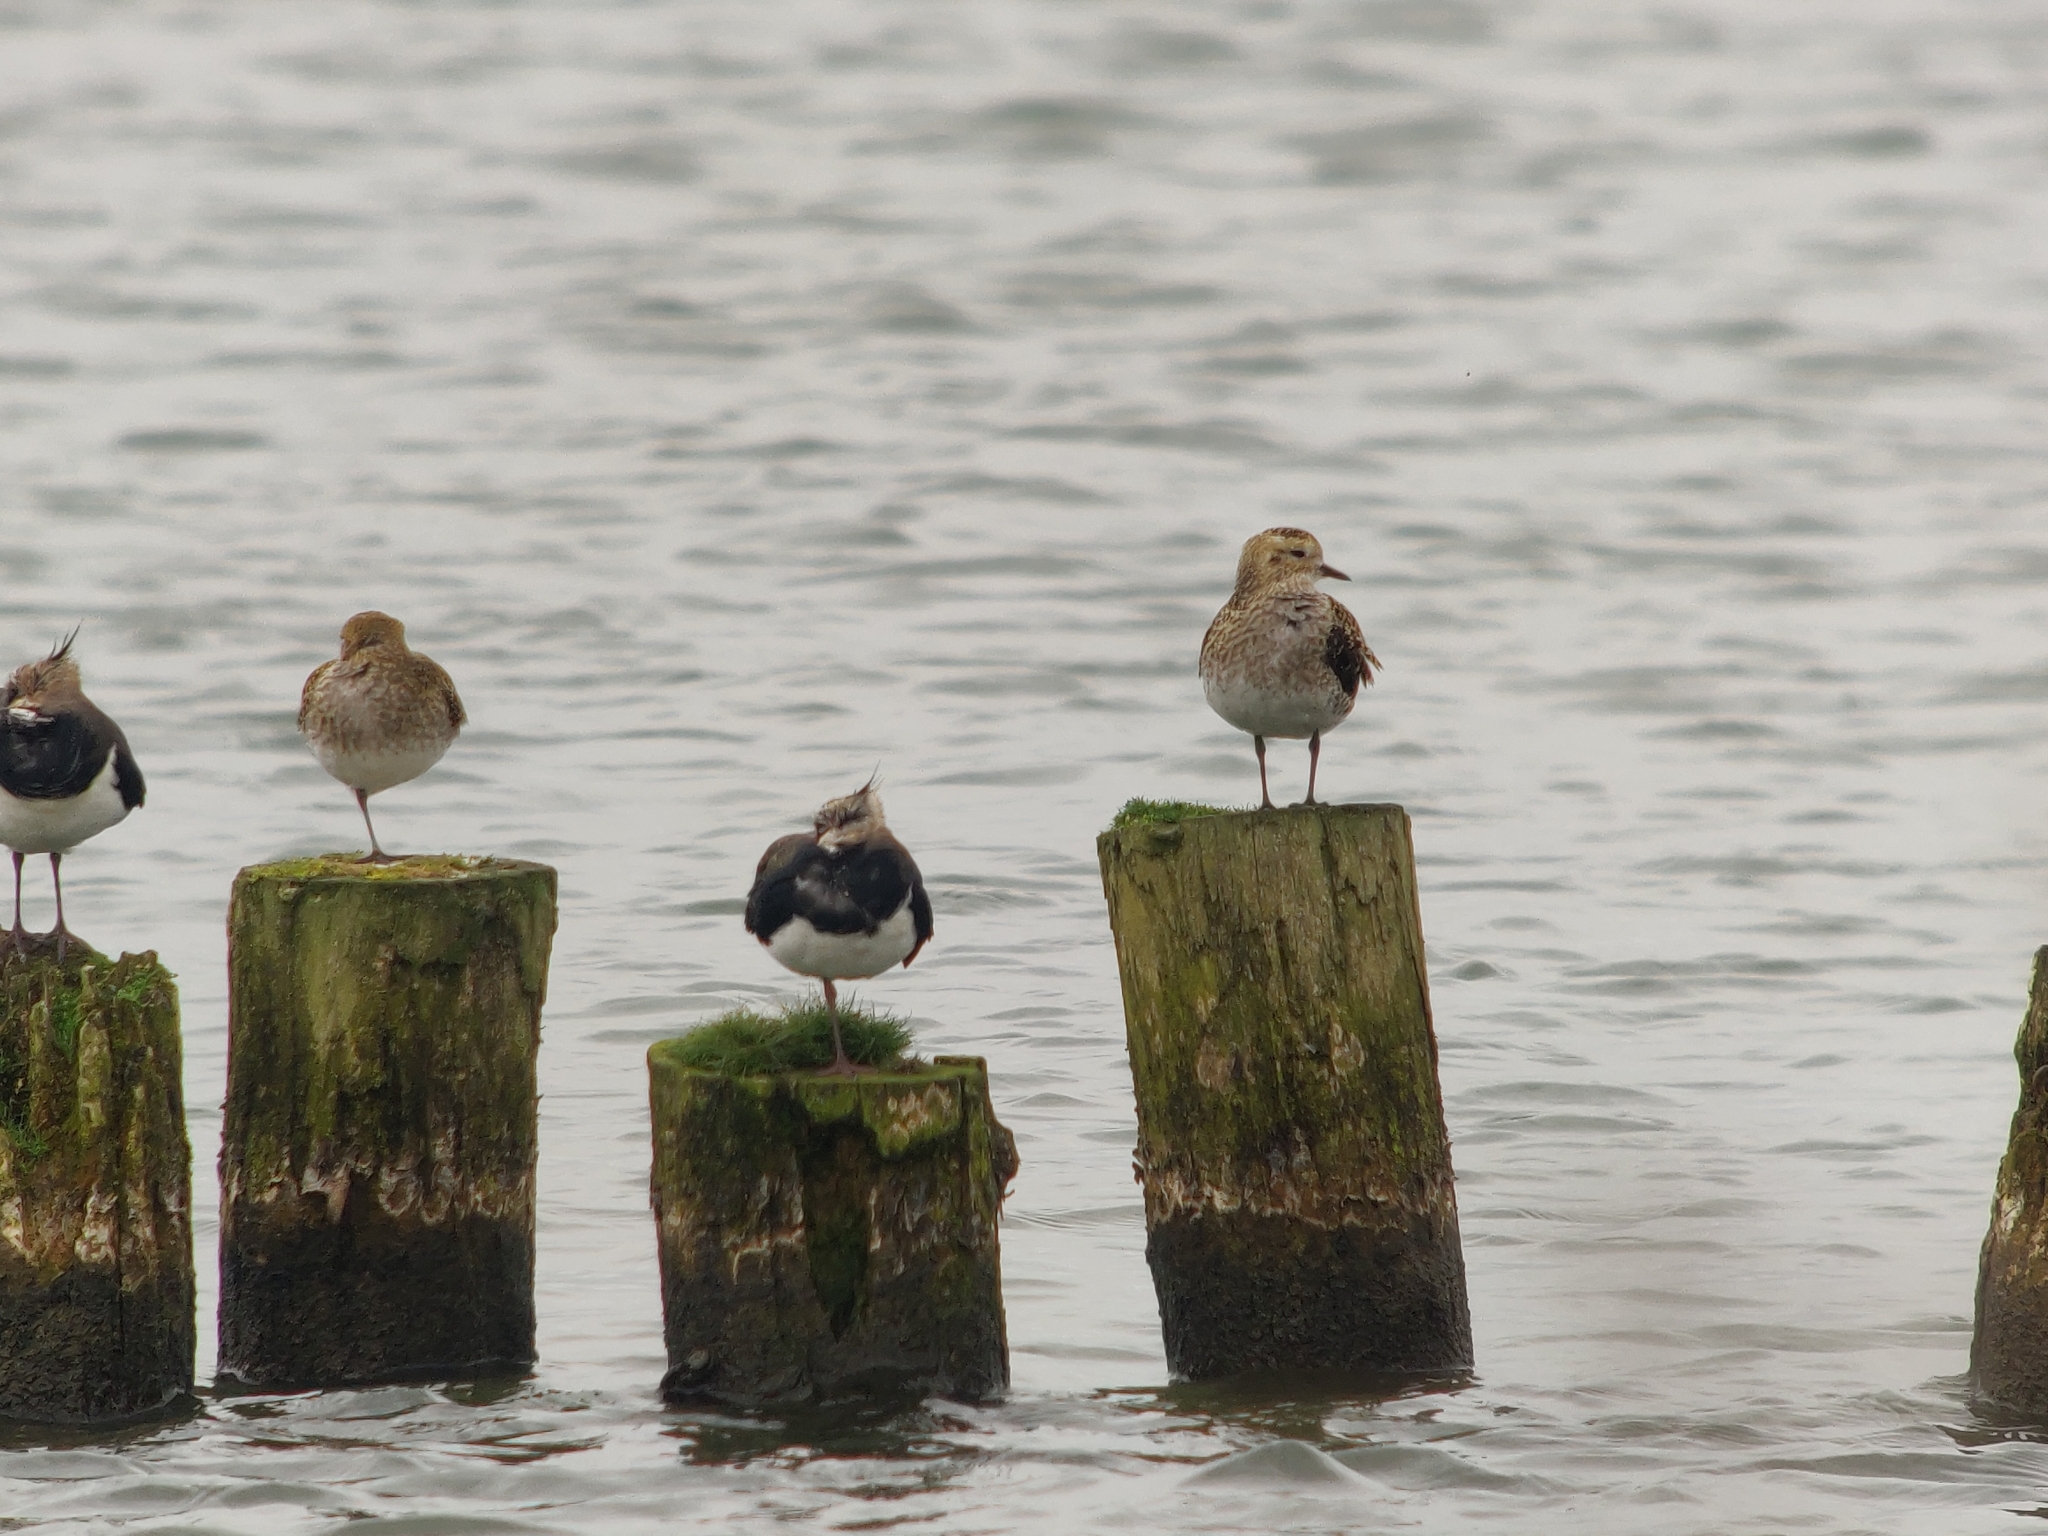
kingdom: Animalia
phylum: Chordata
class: Aves
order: Charadriiformes
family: Charadriidae
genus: Pluvialis
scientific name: Pluvialis apricaria
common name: European golden plover
